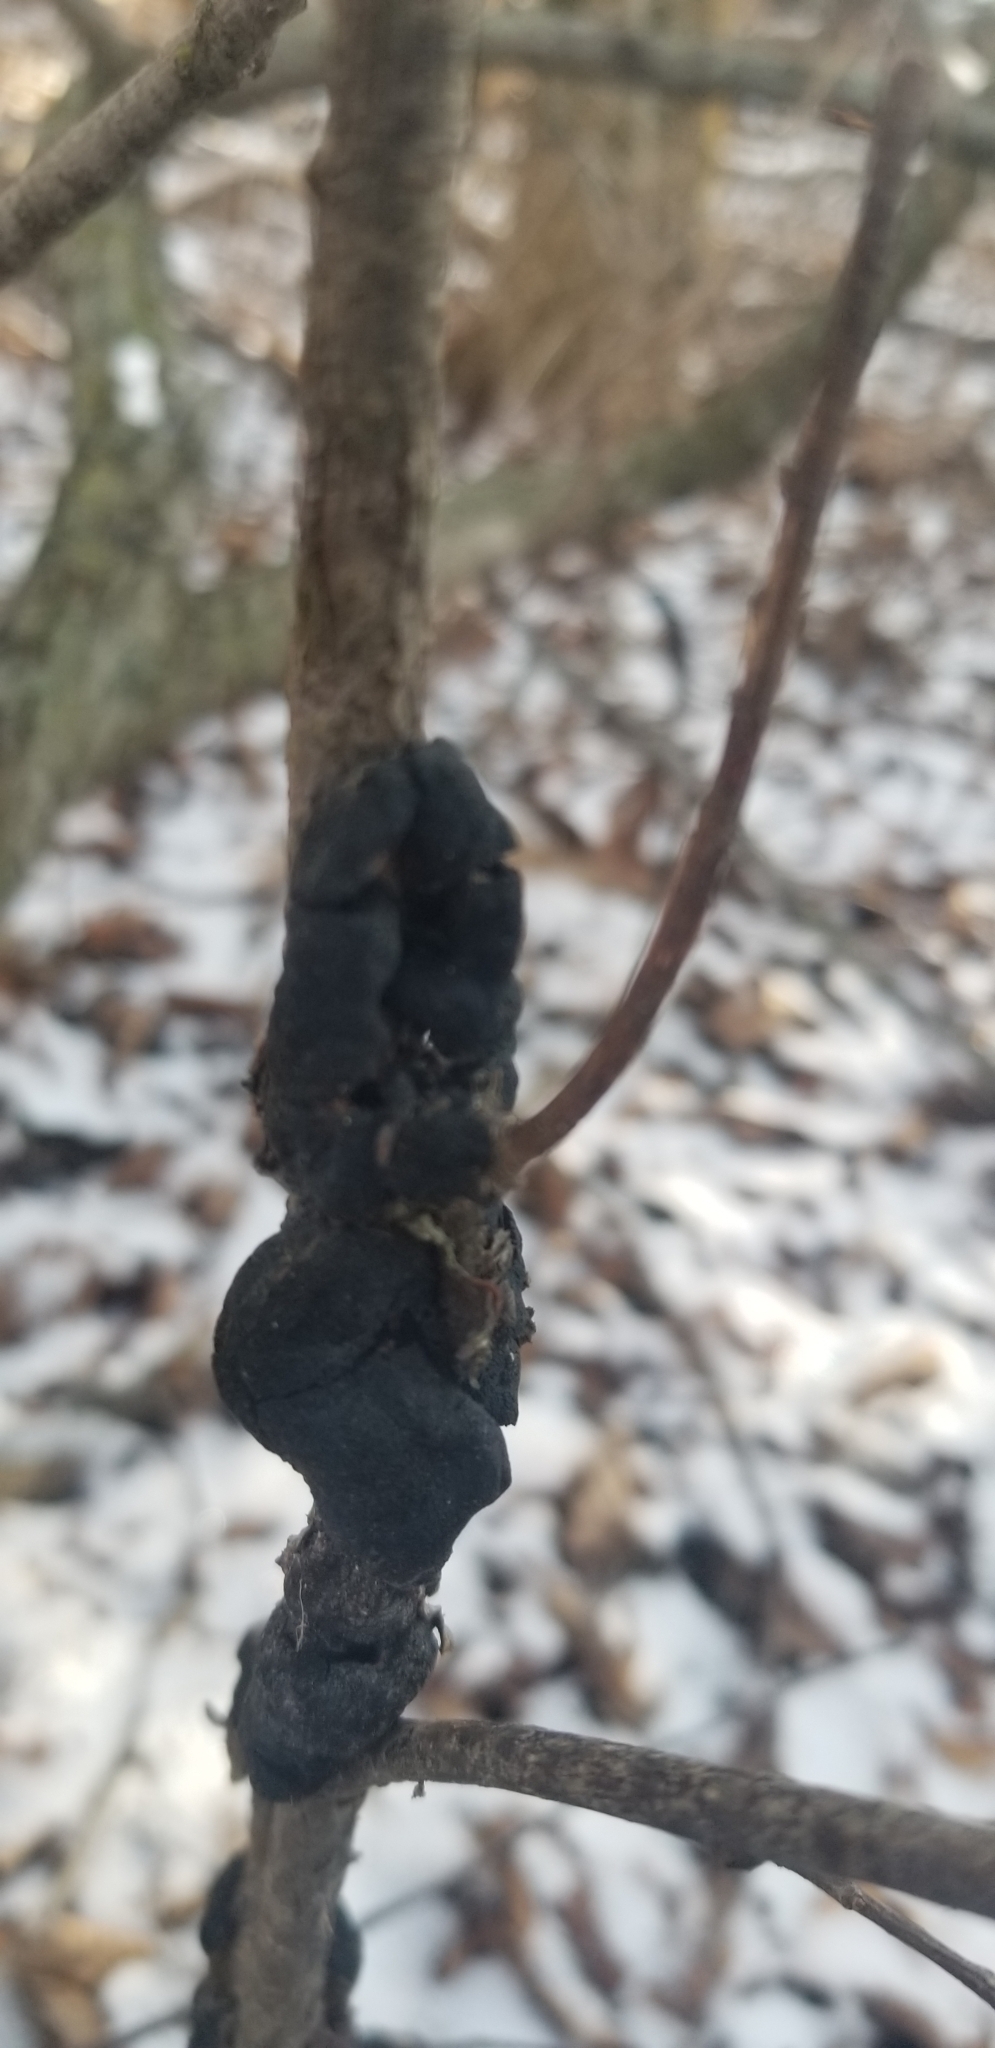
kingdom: Fungi
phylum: Ascomycota
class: Dothideomycetes
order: Venturiales
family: Venturiaceae
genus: Apiosporina
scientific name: Apiosporina morbosa
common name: Black knot
